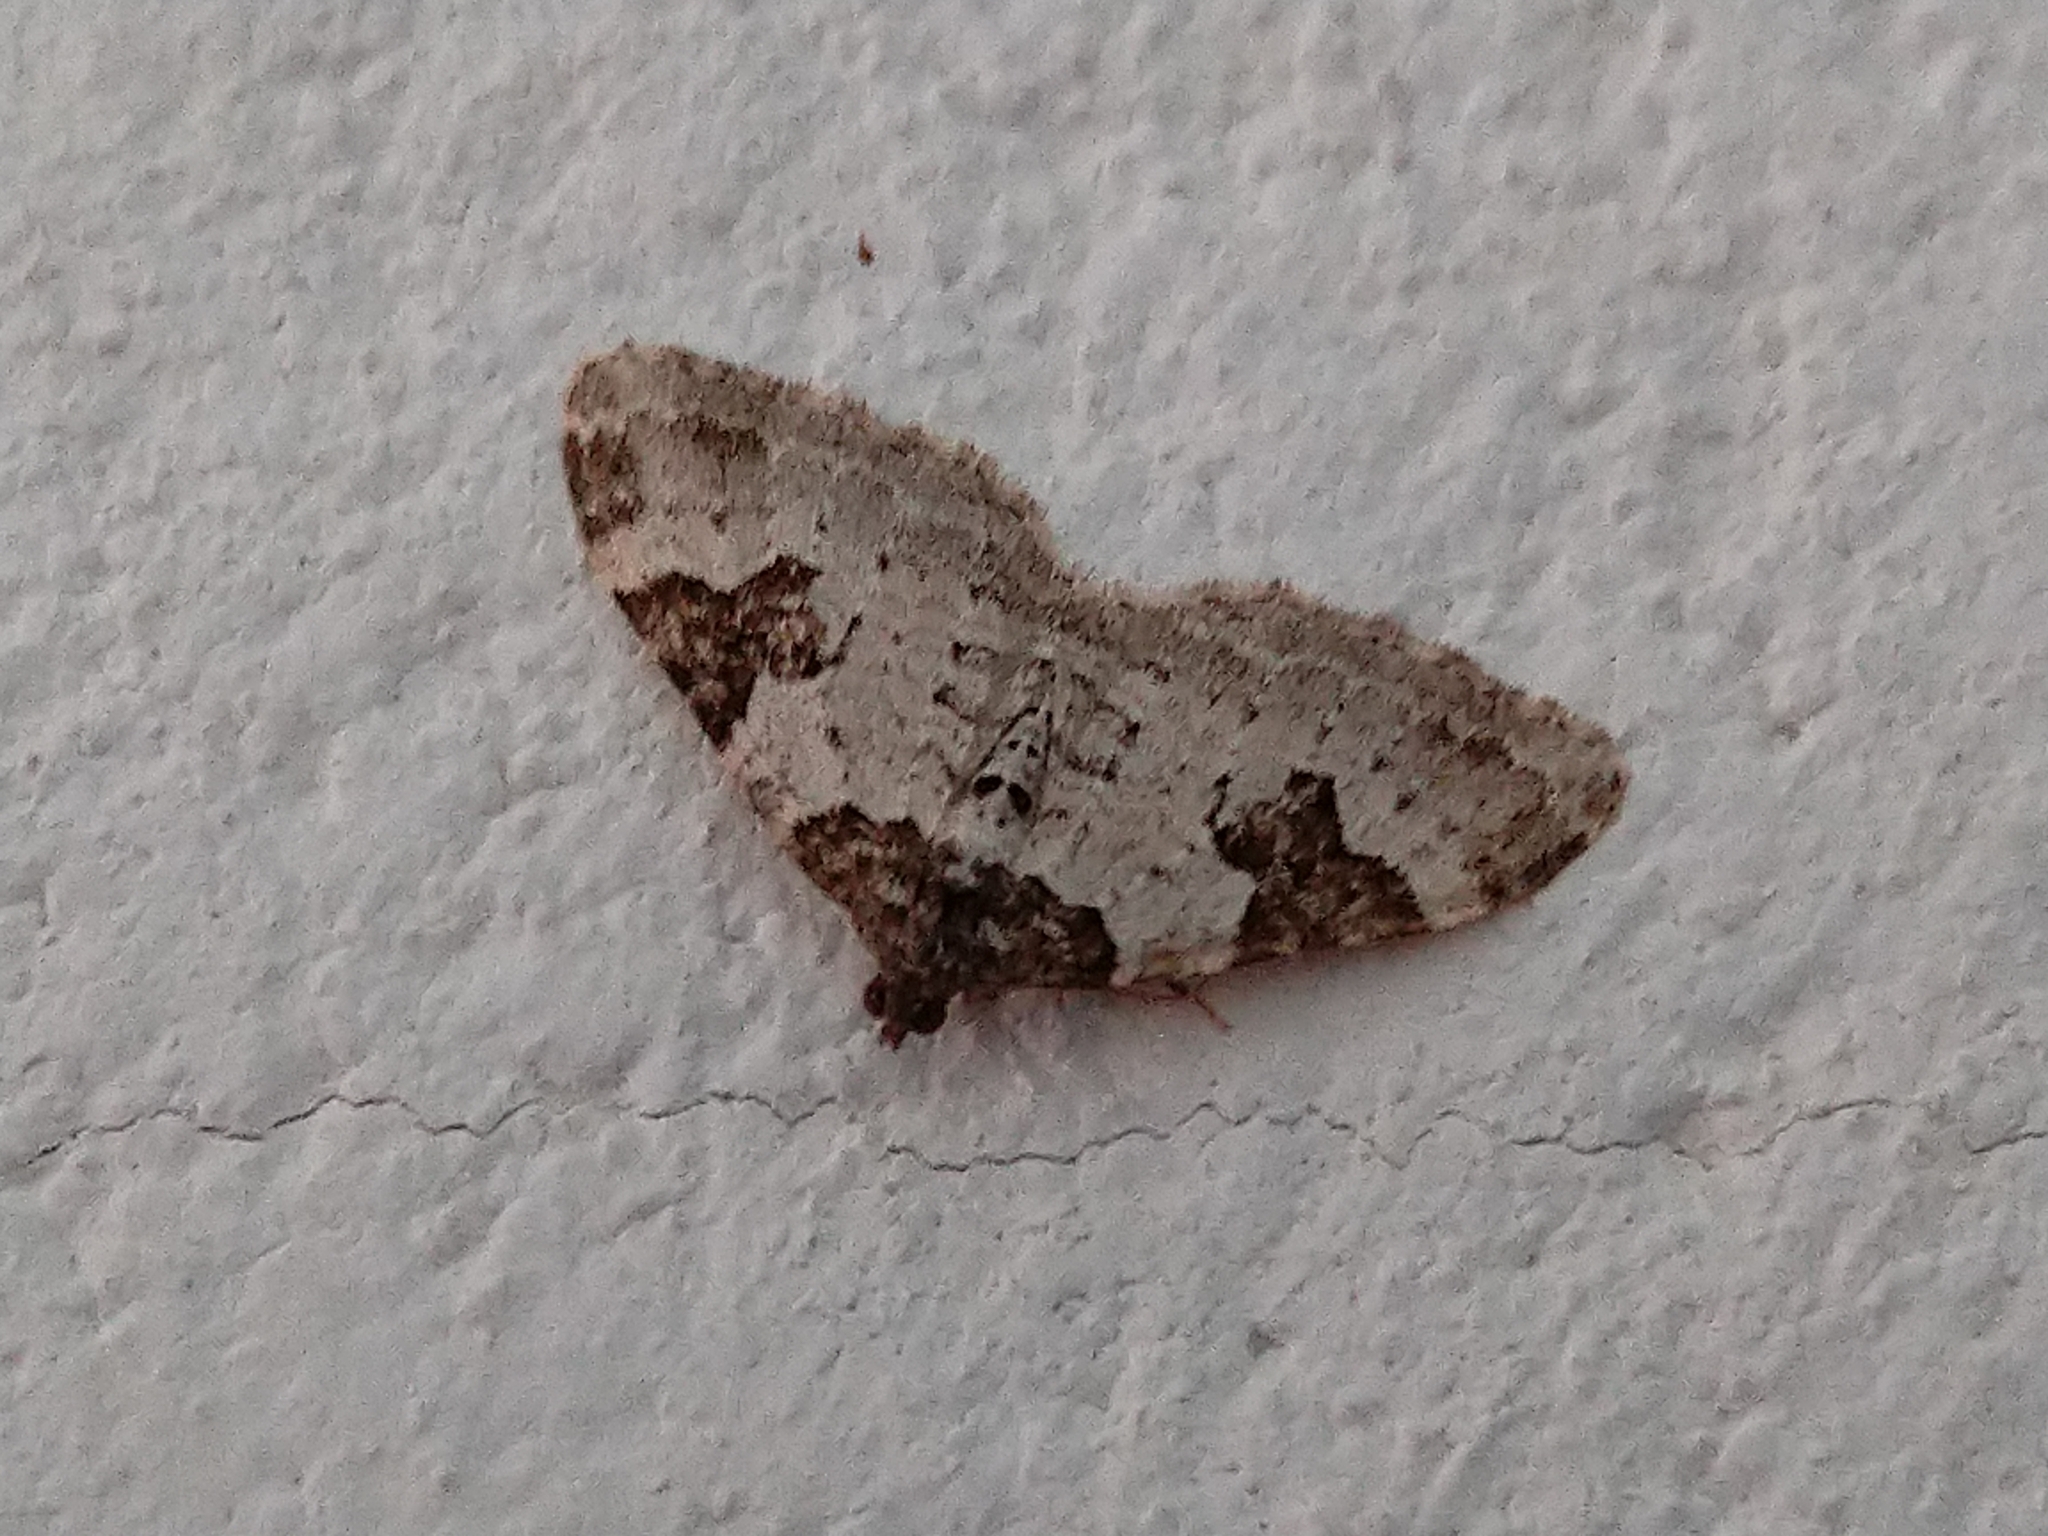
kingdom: Animalia
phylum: Arthropoda
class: Insecta
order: Lepidoptera
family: Geometridae
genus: Xanthorhoe
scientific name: Xanthorhoe fluctuata
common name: Garden carpet
